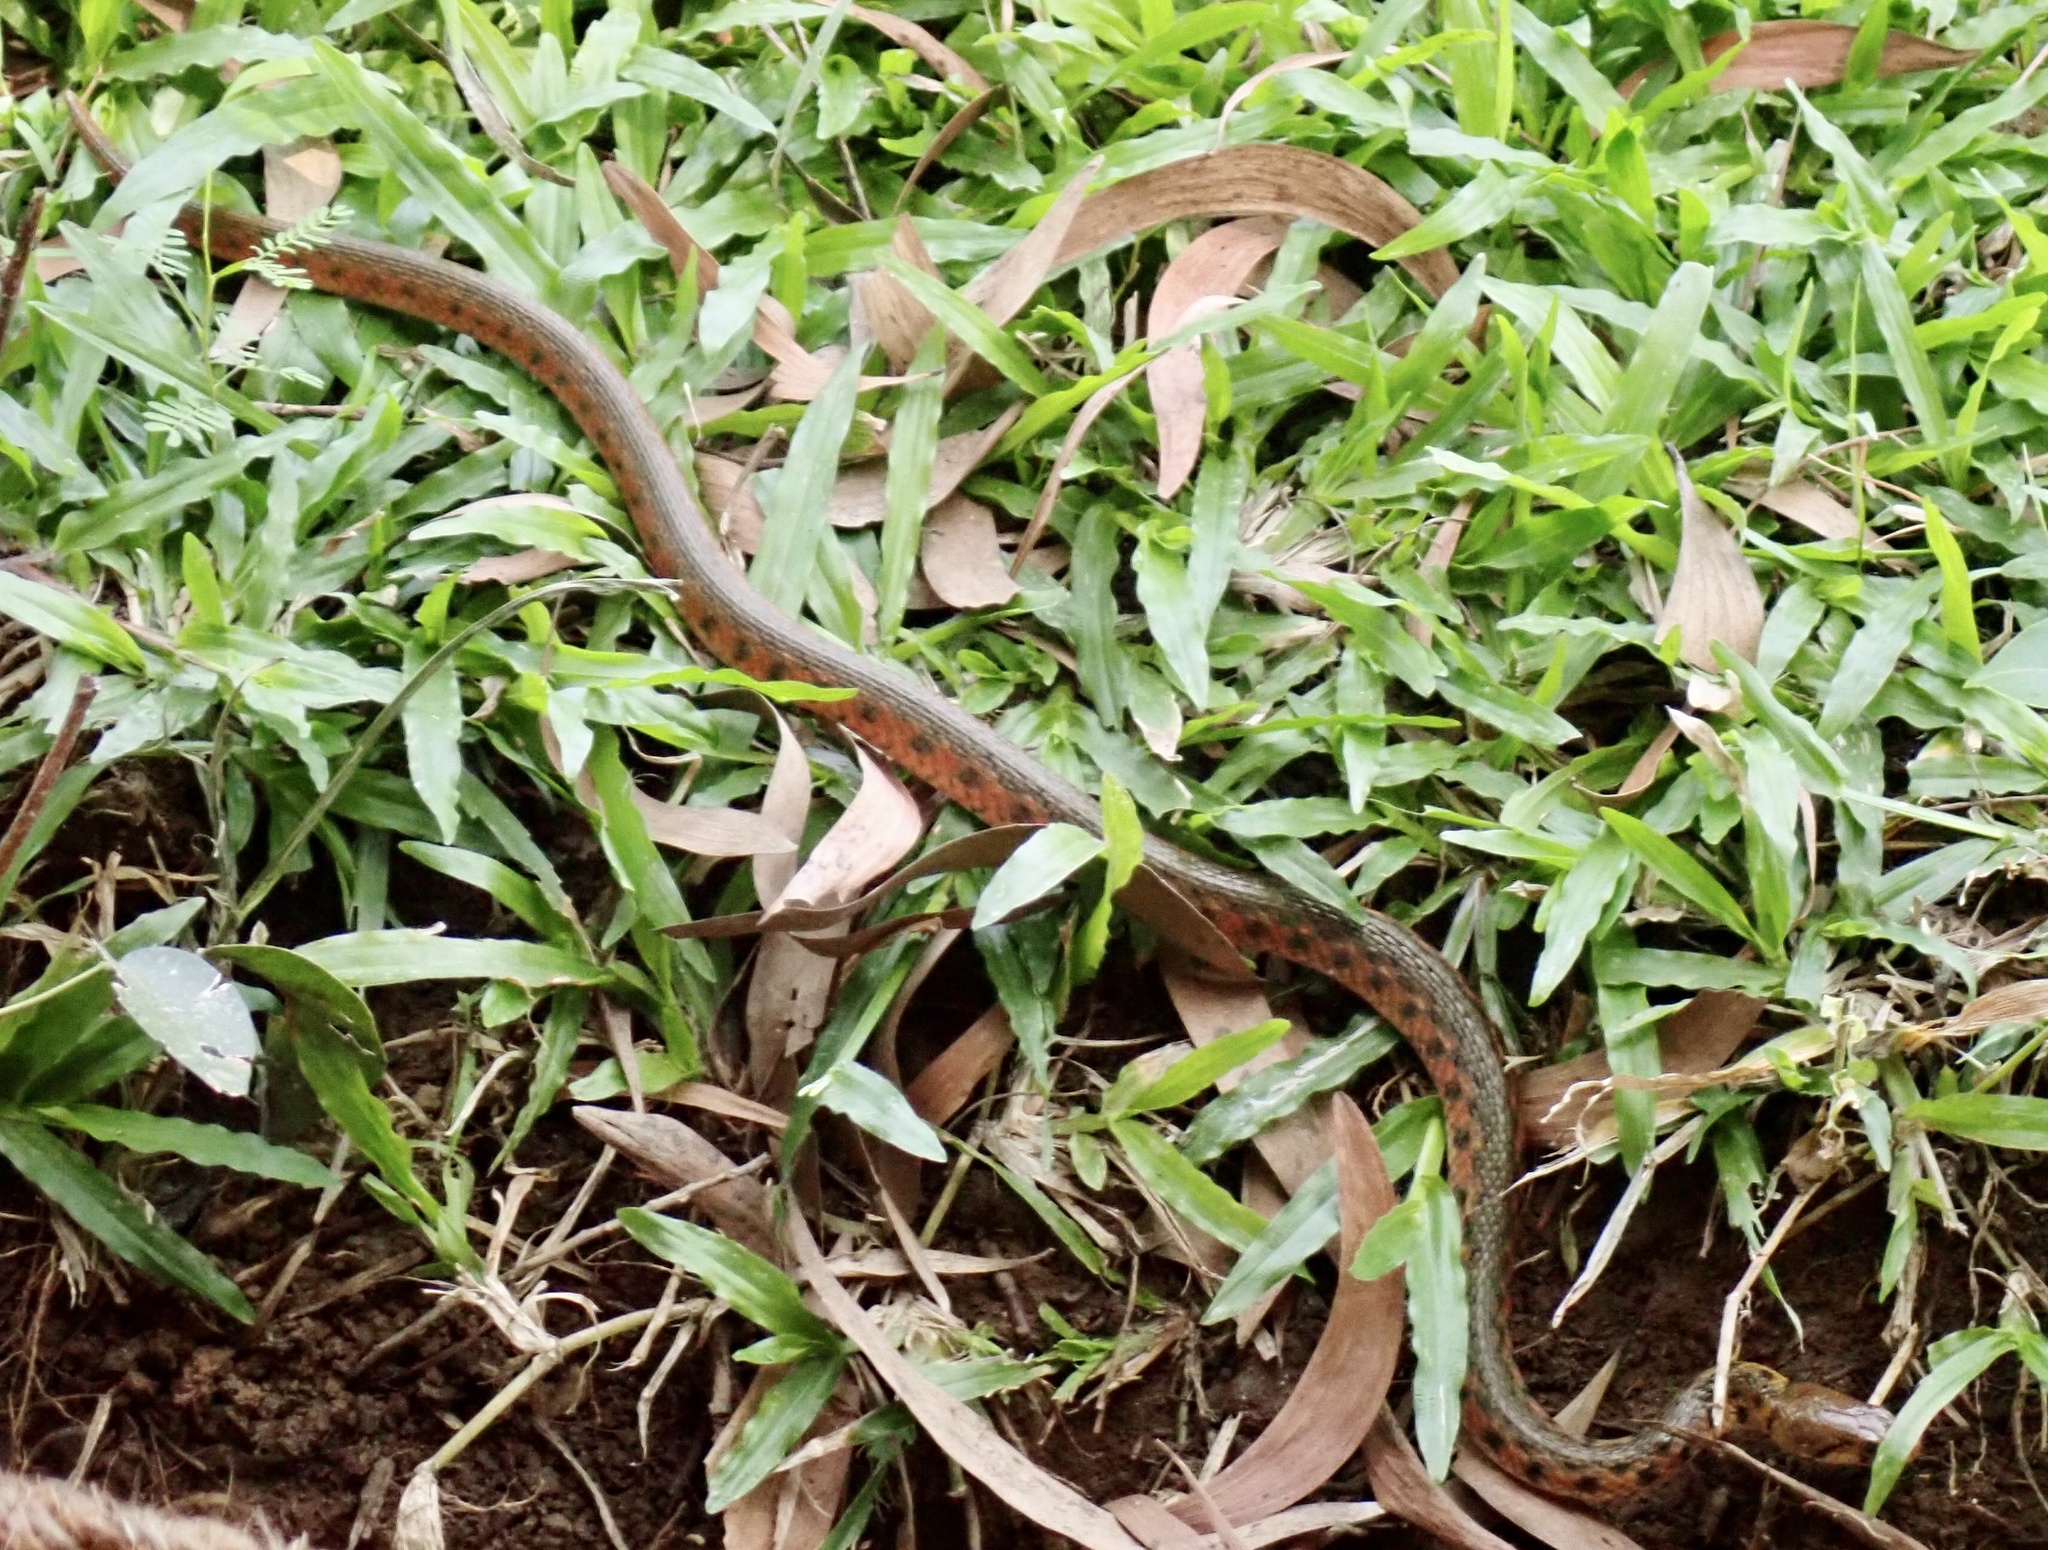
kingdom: Animalia
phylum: Chordata
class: Squamata
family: Colubridae
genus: Fowlea
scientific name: Fowlea piscator
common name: Asiatic water snake
